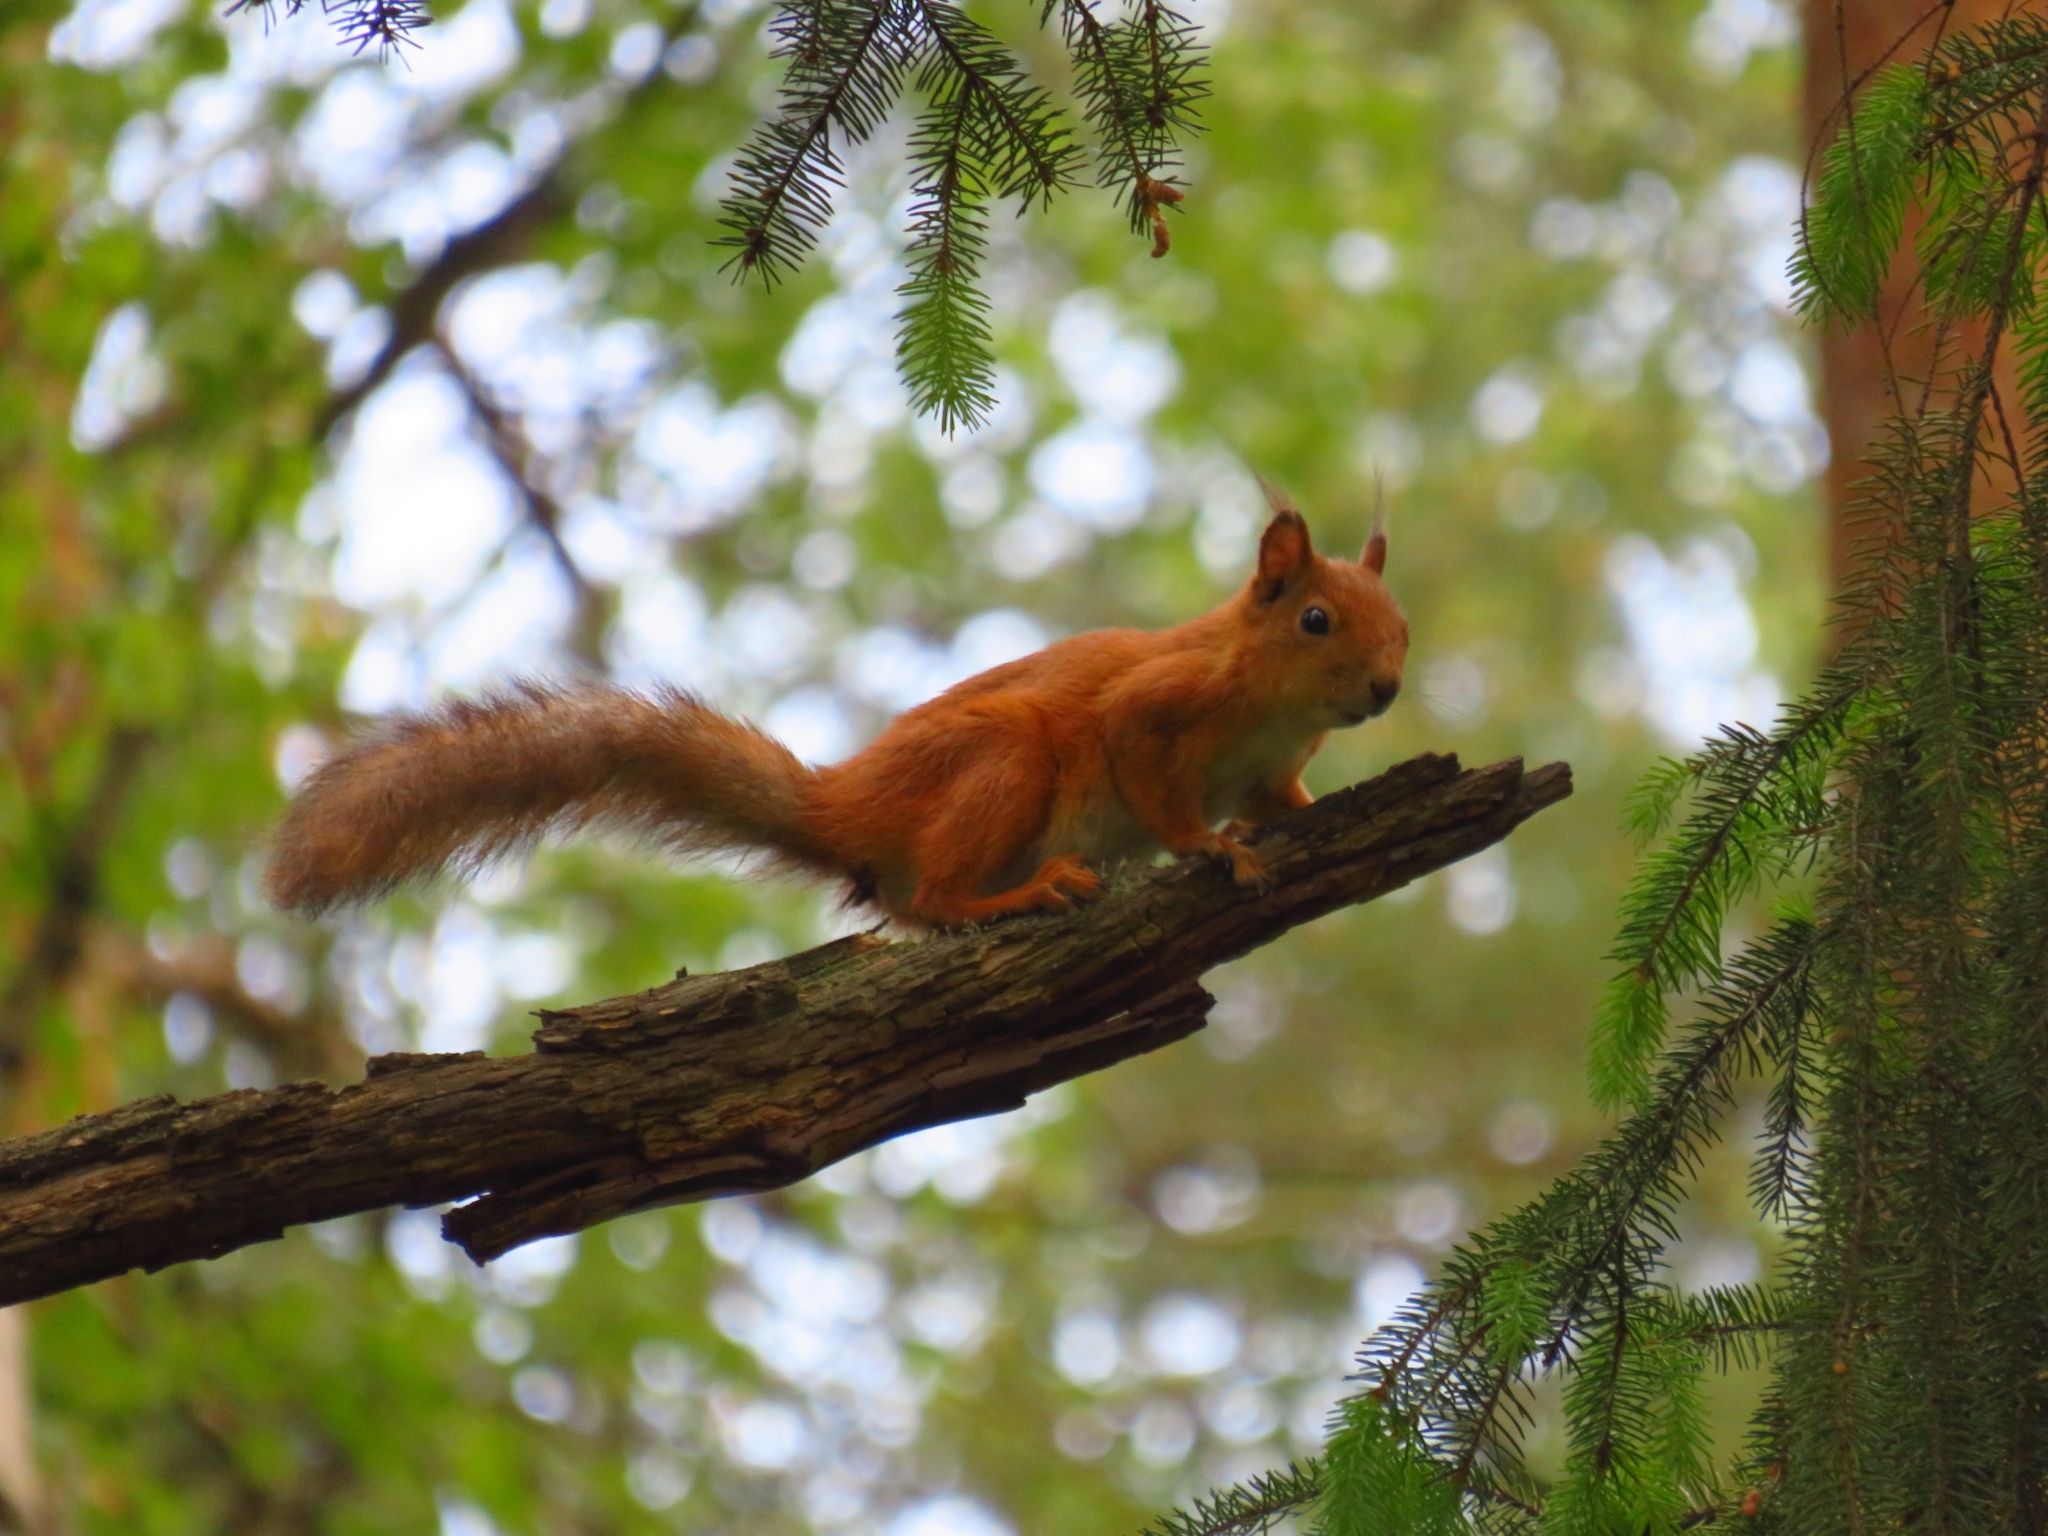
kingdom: Animalia
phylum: Chordata
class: Mammalia
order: Rodentia
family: Sciuridae
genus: Sciurus
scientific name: Sciurus vulgaris
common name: Eurasian red squirrel
